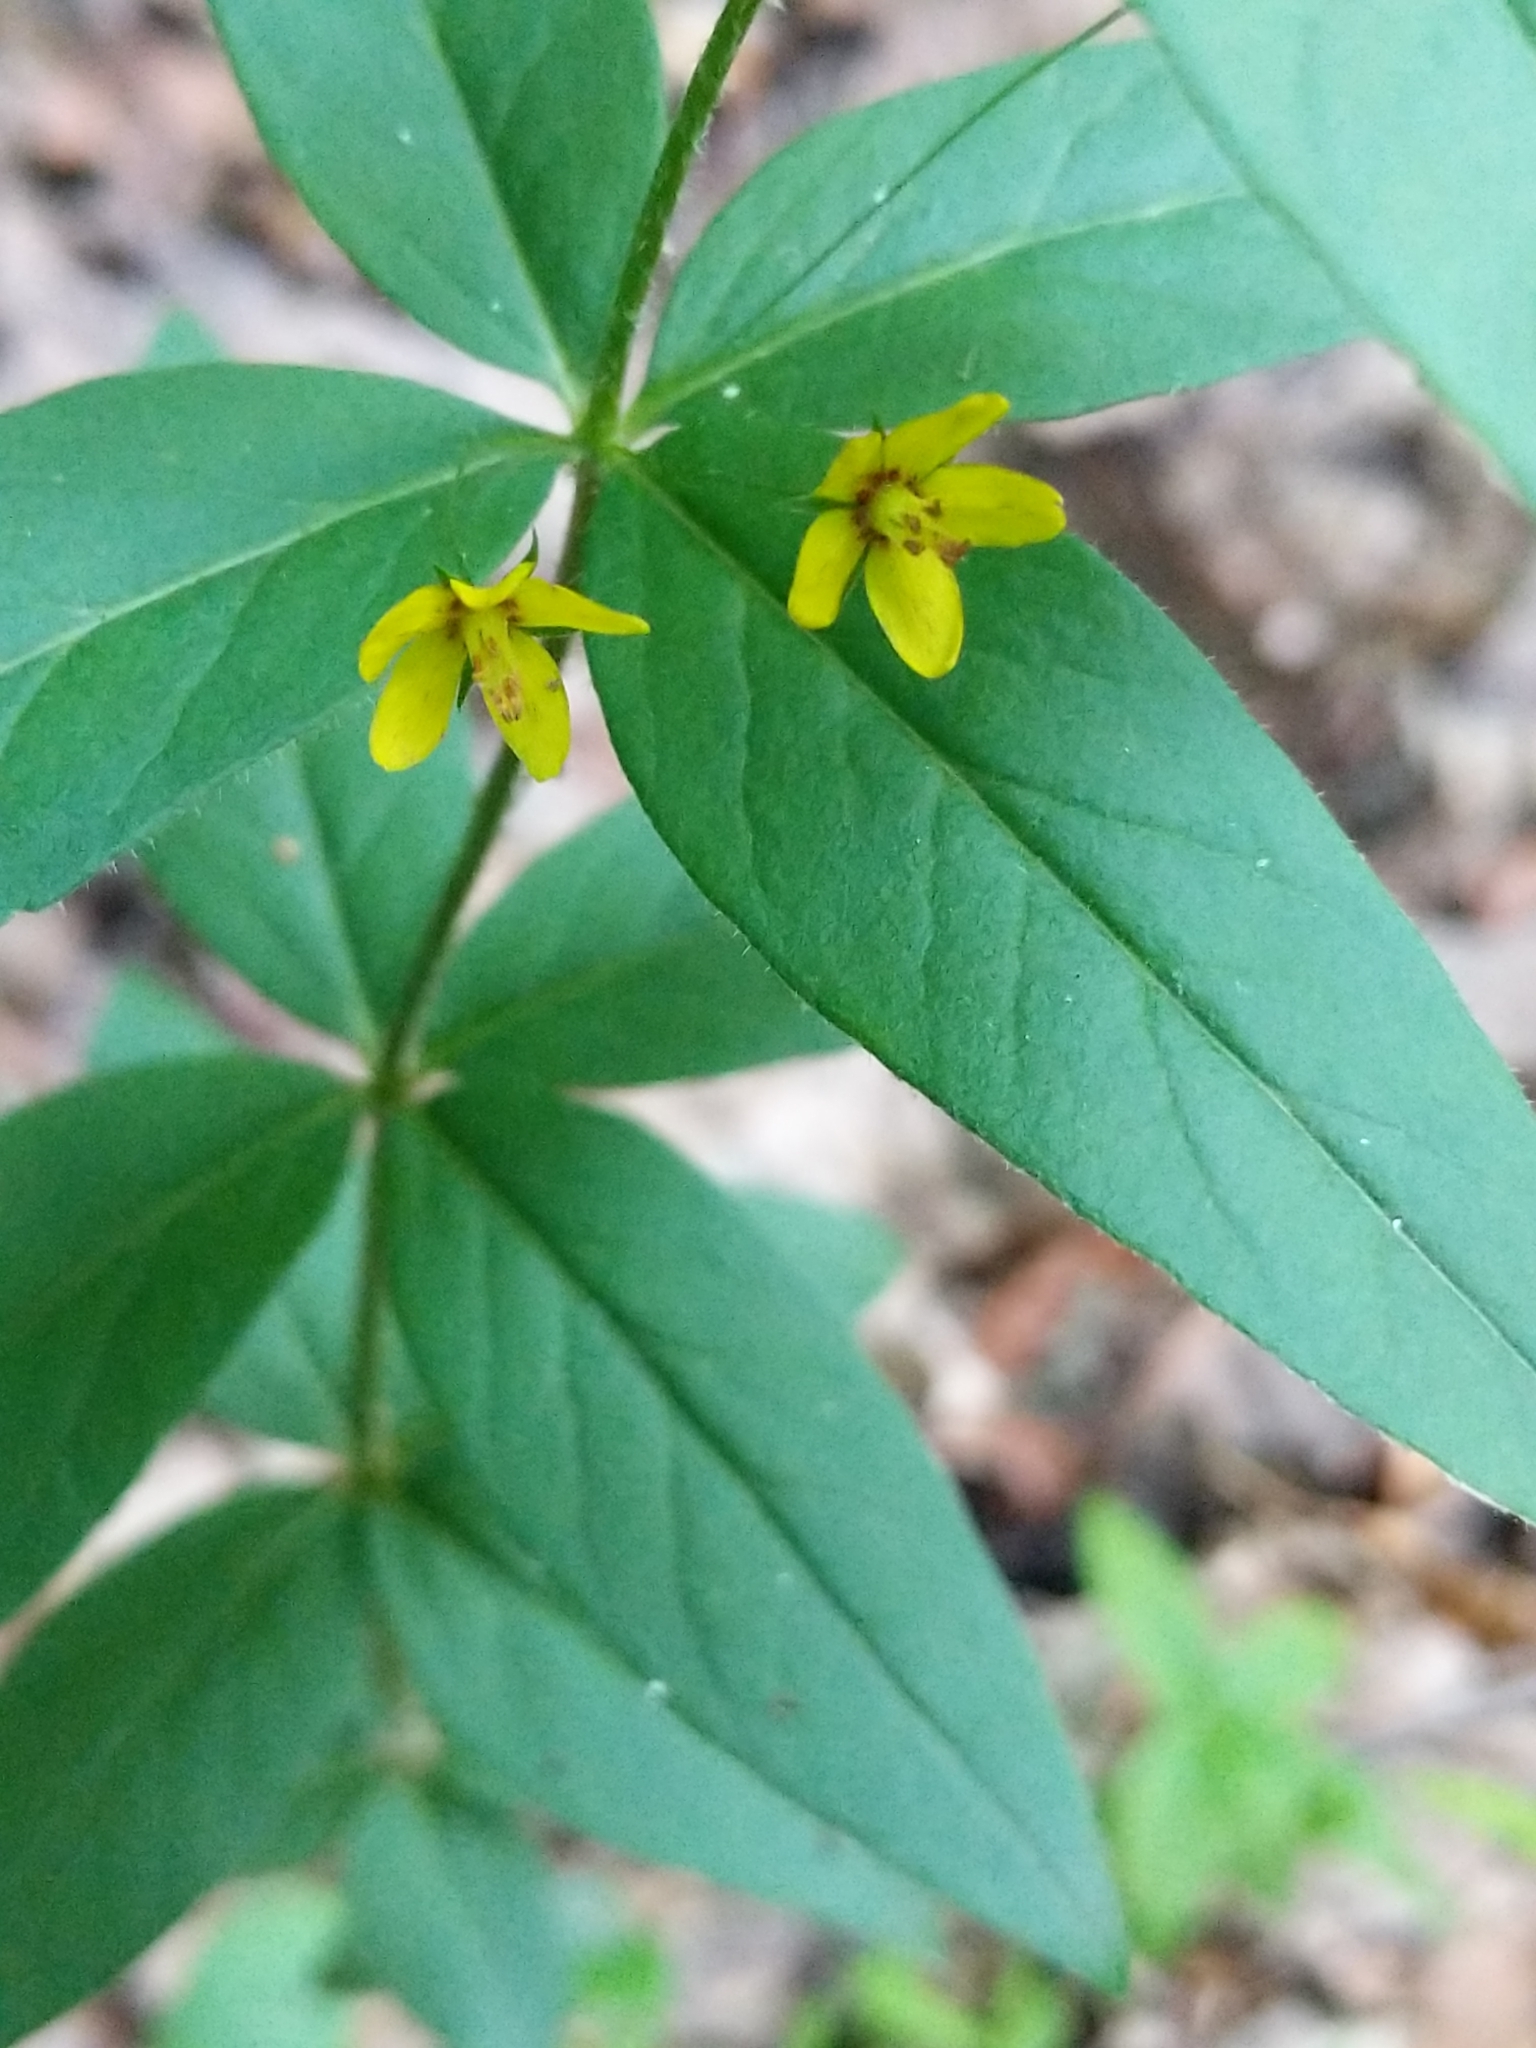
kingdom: Plantae
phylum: Tracheophyta
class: Magnoliopsida
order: Ericales
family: Primulaceae
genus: Lysimachia
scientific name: Lysimachia quadrifolia
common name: Whorled loosestrife
